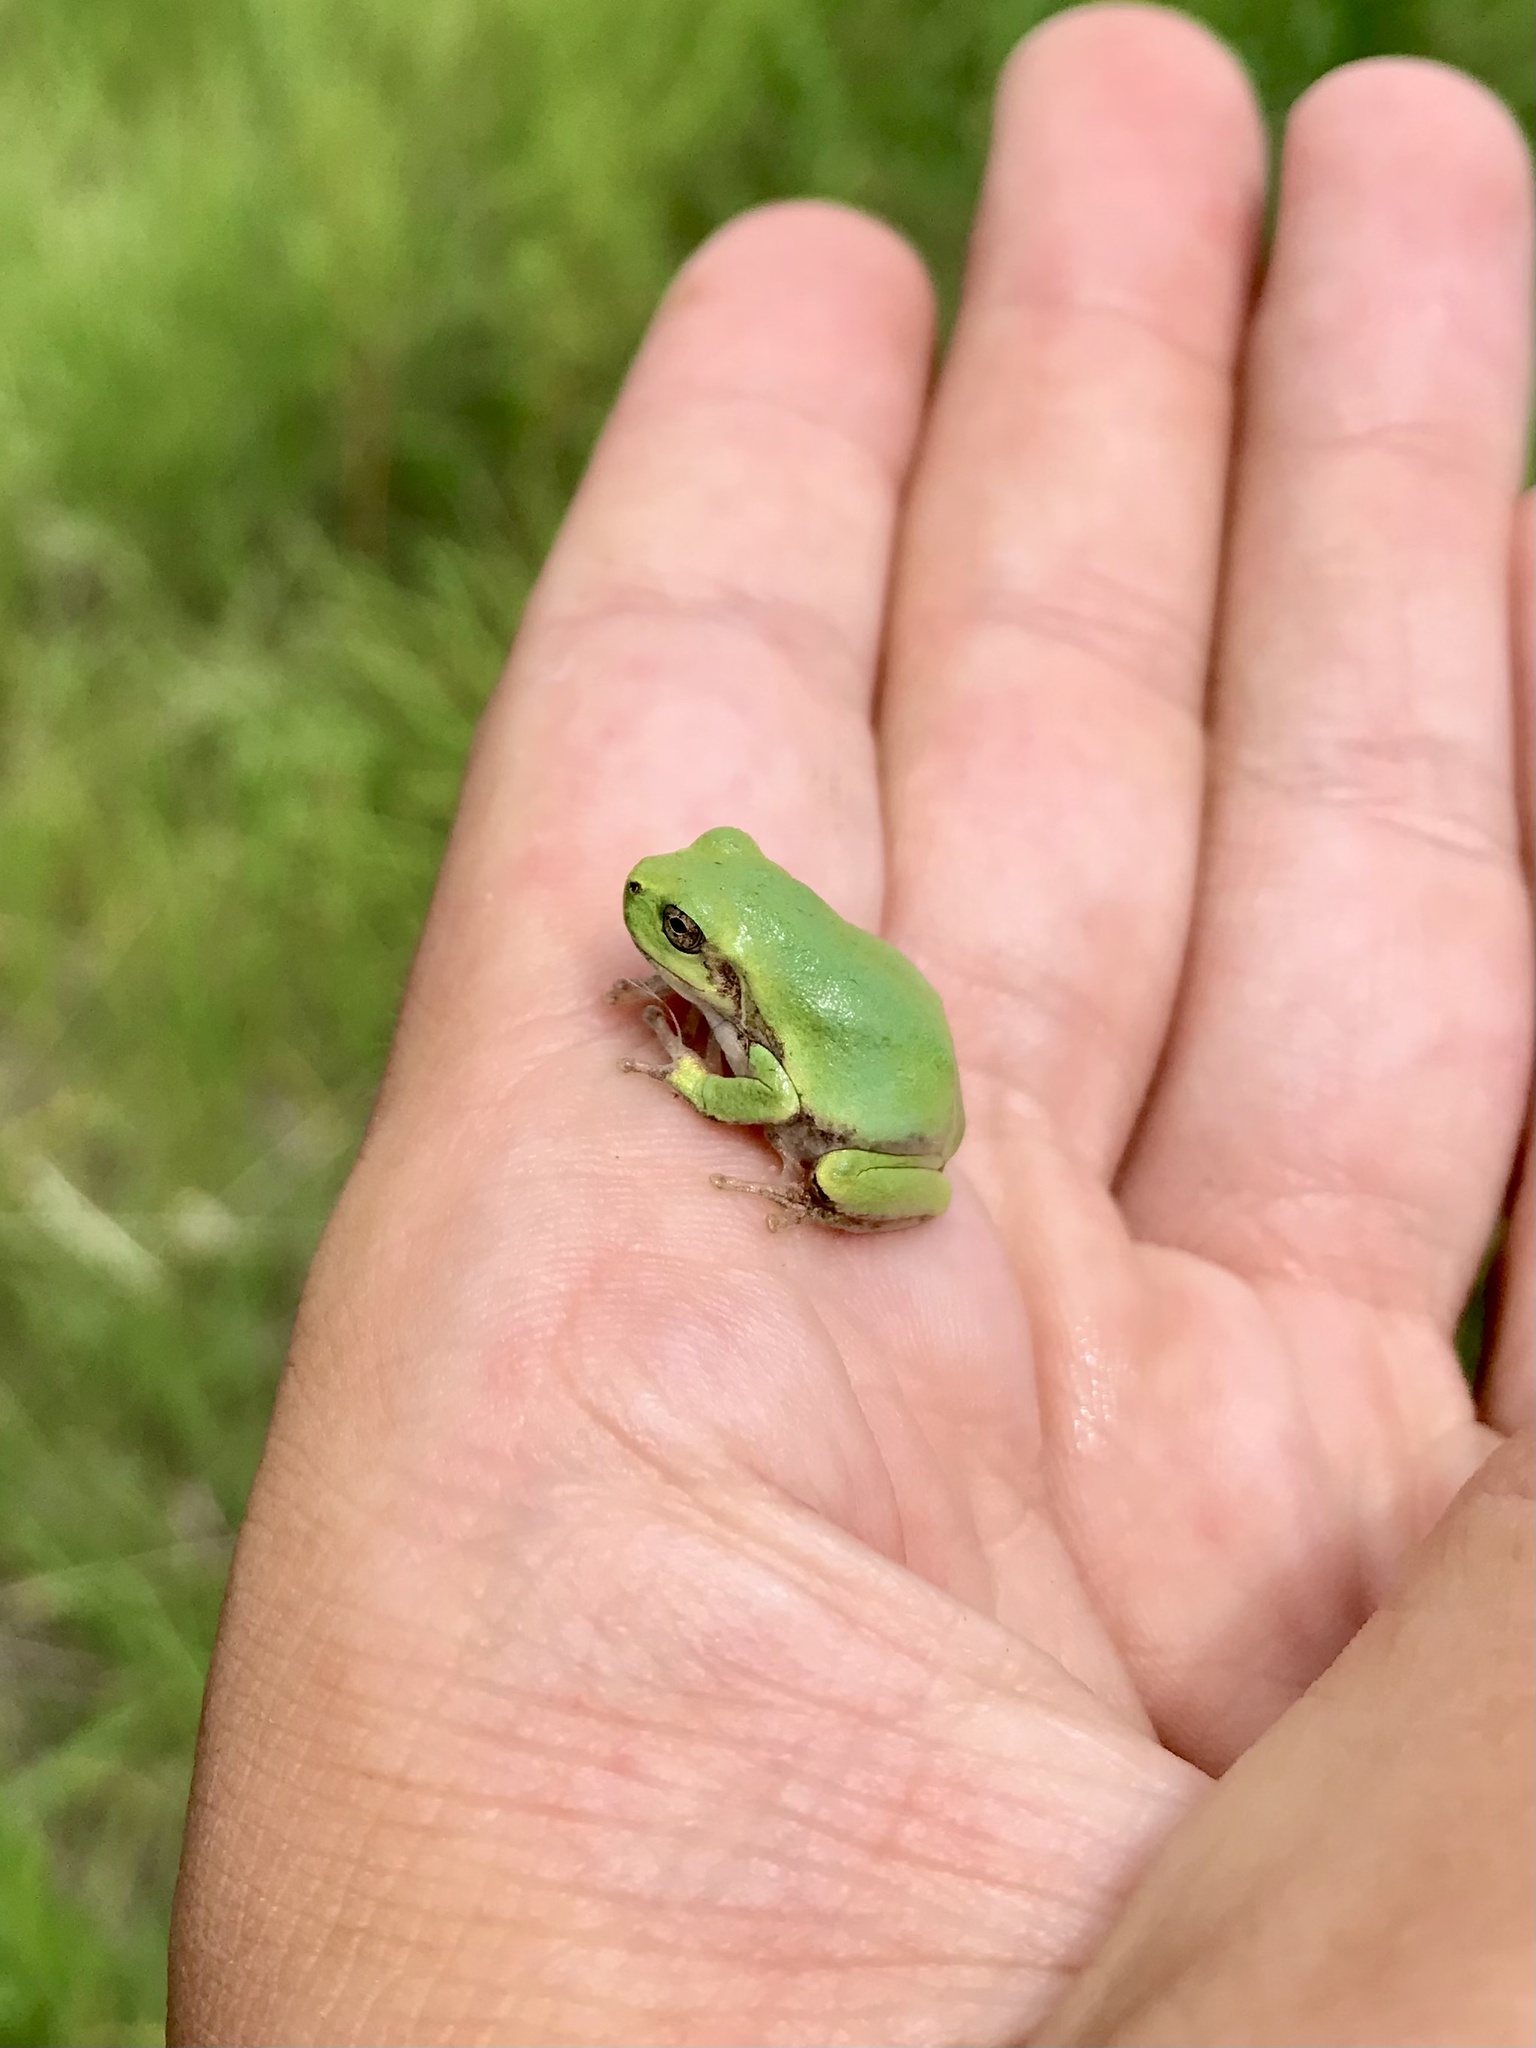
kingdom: Animalia
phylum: Chordata
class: Amphibia
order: Anura
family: Hylidae
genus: Hyla
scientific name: Hyla
